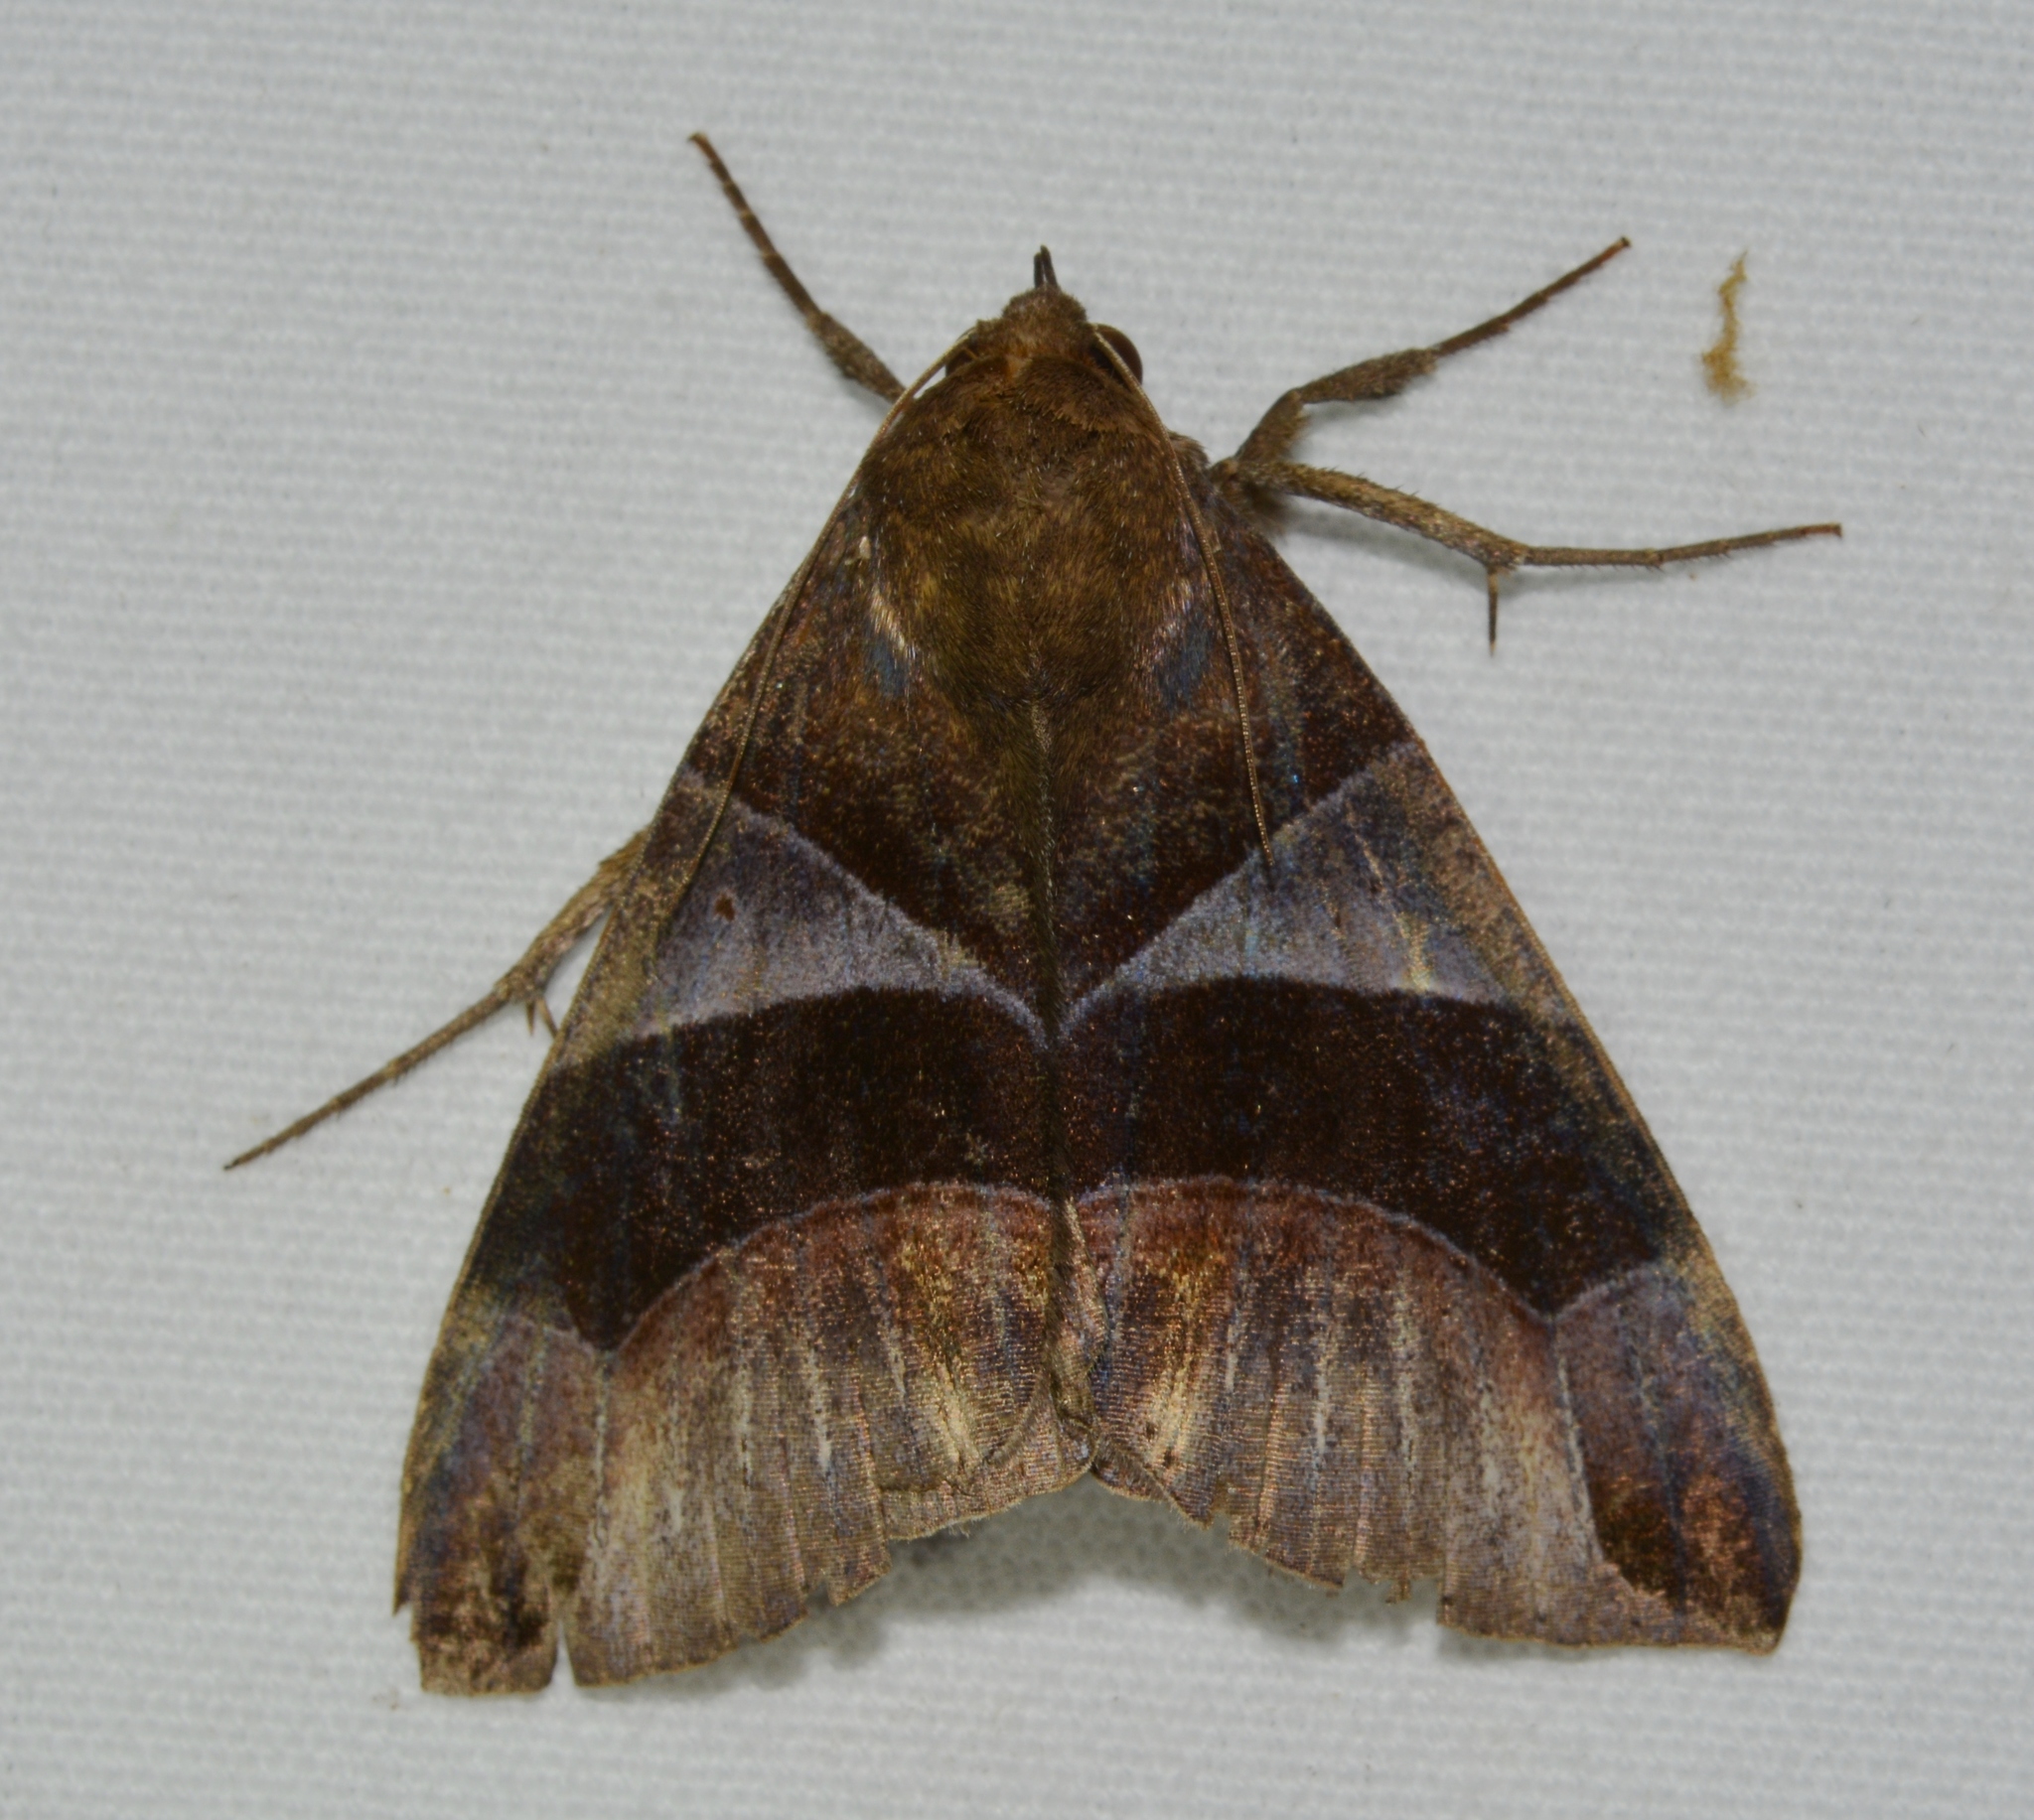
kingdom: Animalia
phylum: Arthropoda
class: Insecta
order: Lepidoptera
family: Erebidae
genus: Dysgonia
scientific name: Dysgonia purpurata
